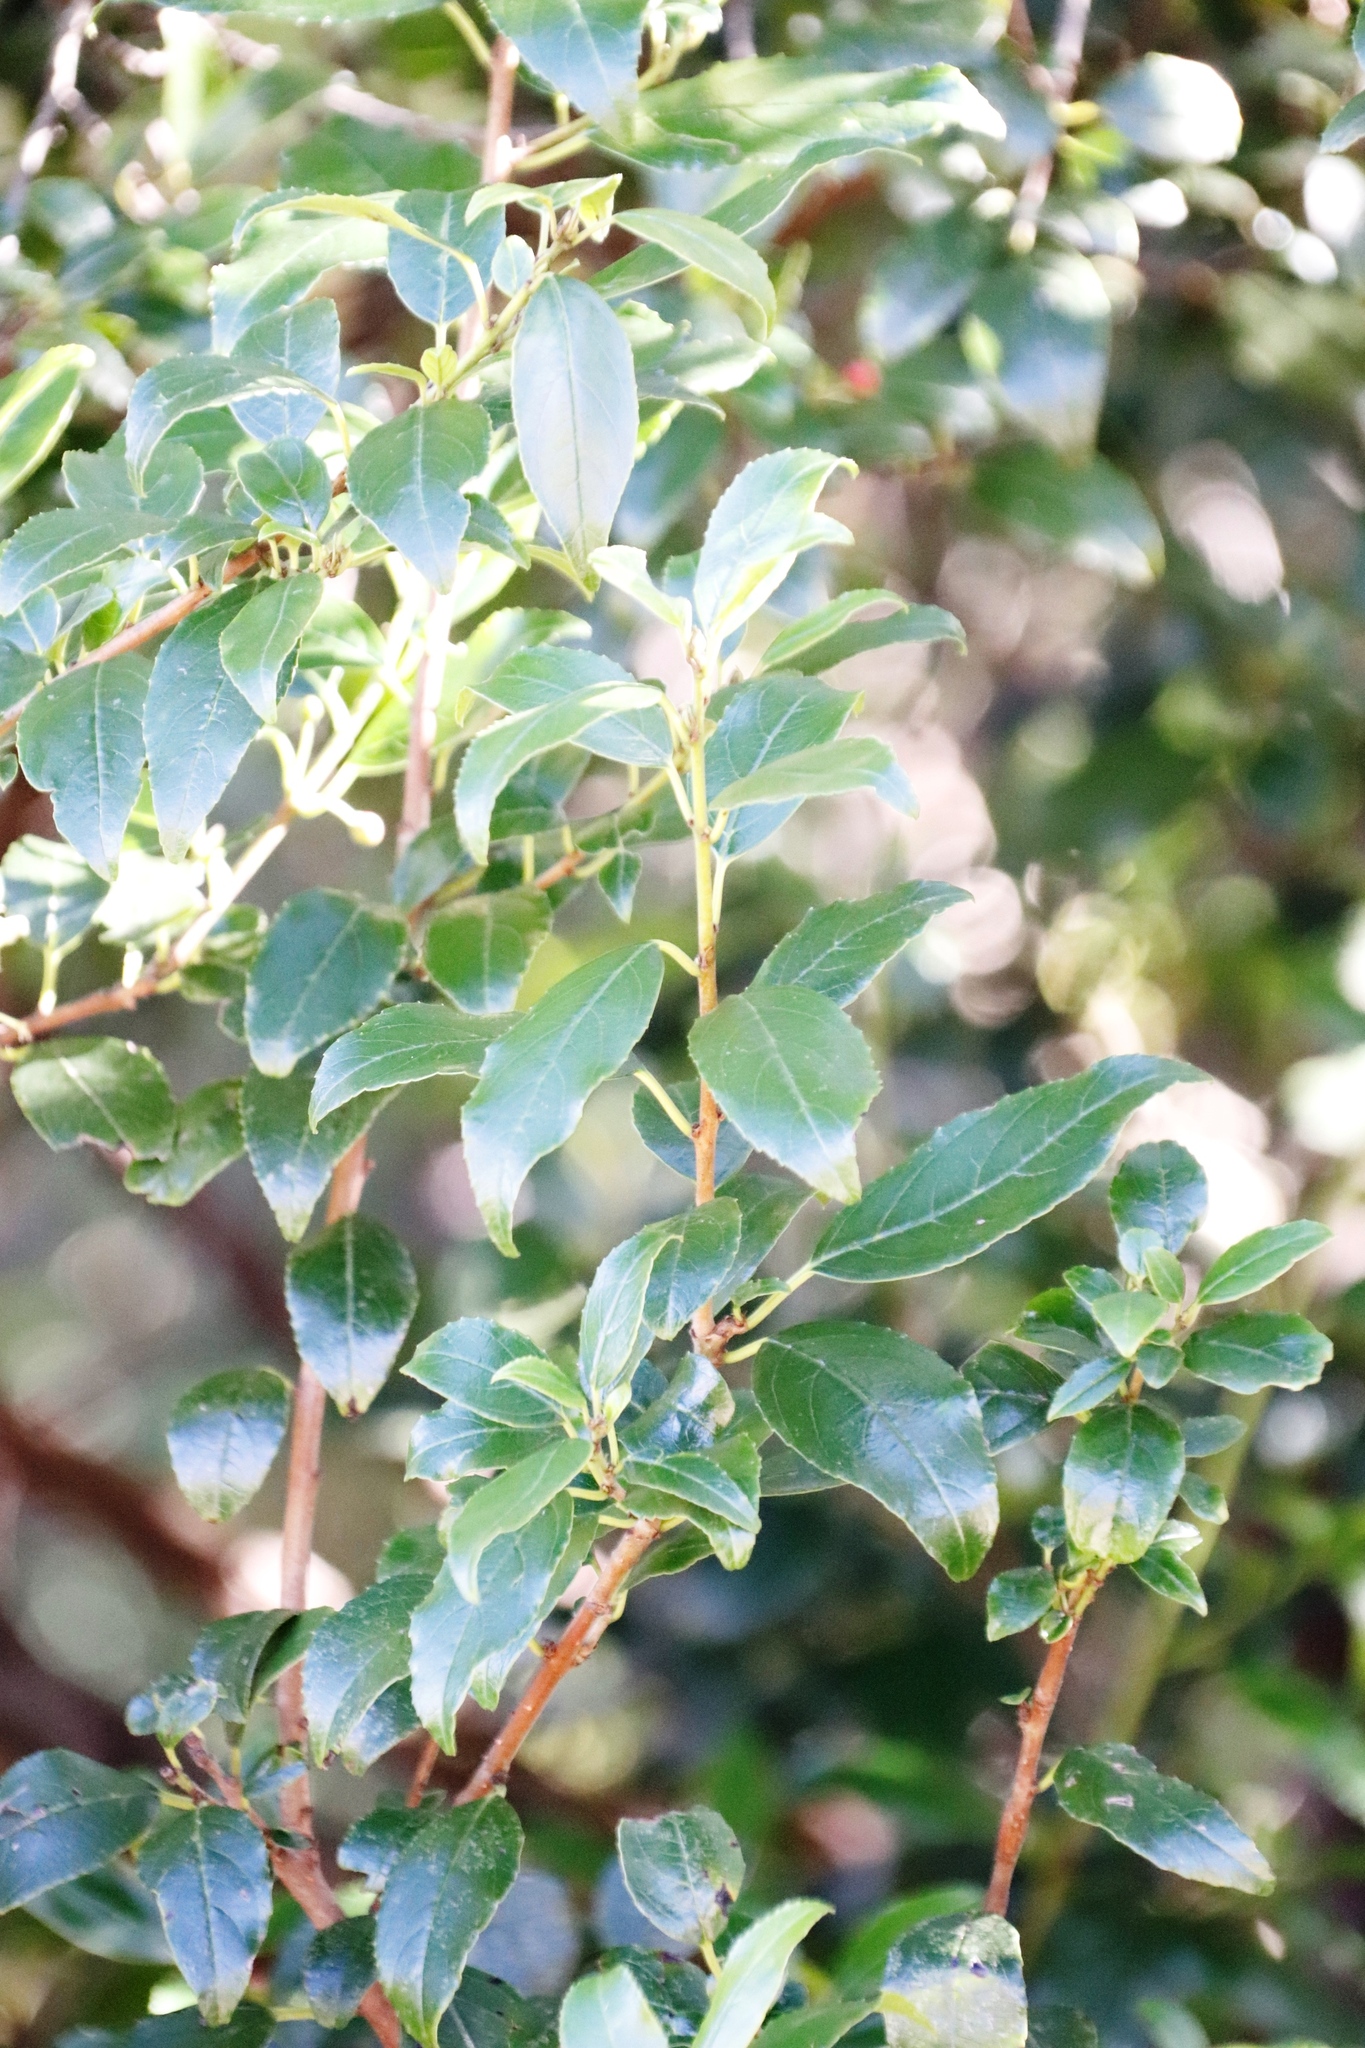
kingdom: Plantae
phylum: Tracheophyta
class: Magnoliopsida
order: Rosales
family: Rhamnaceae
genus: Rhamnus
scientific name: Rhamnus prinoides
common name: Dogwood
